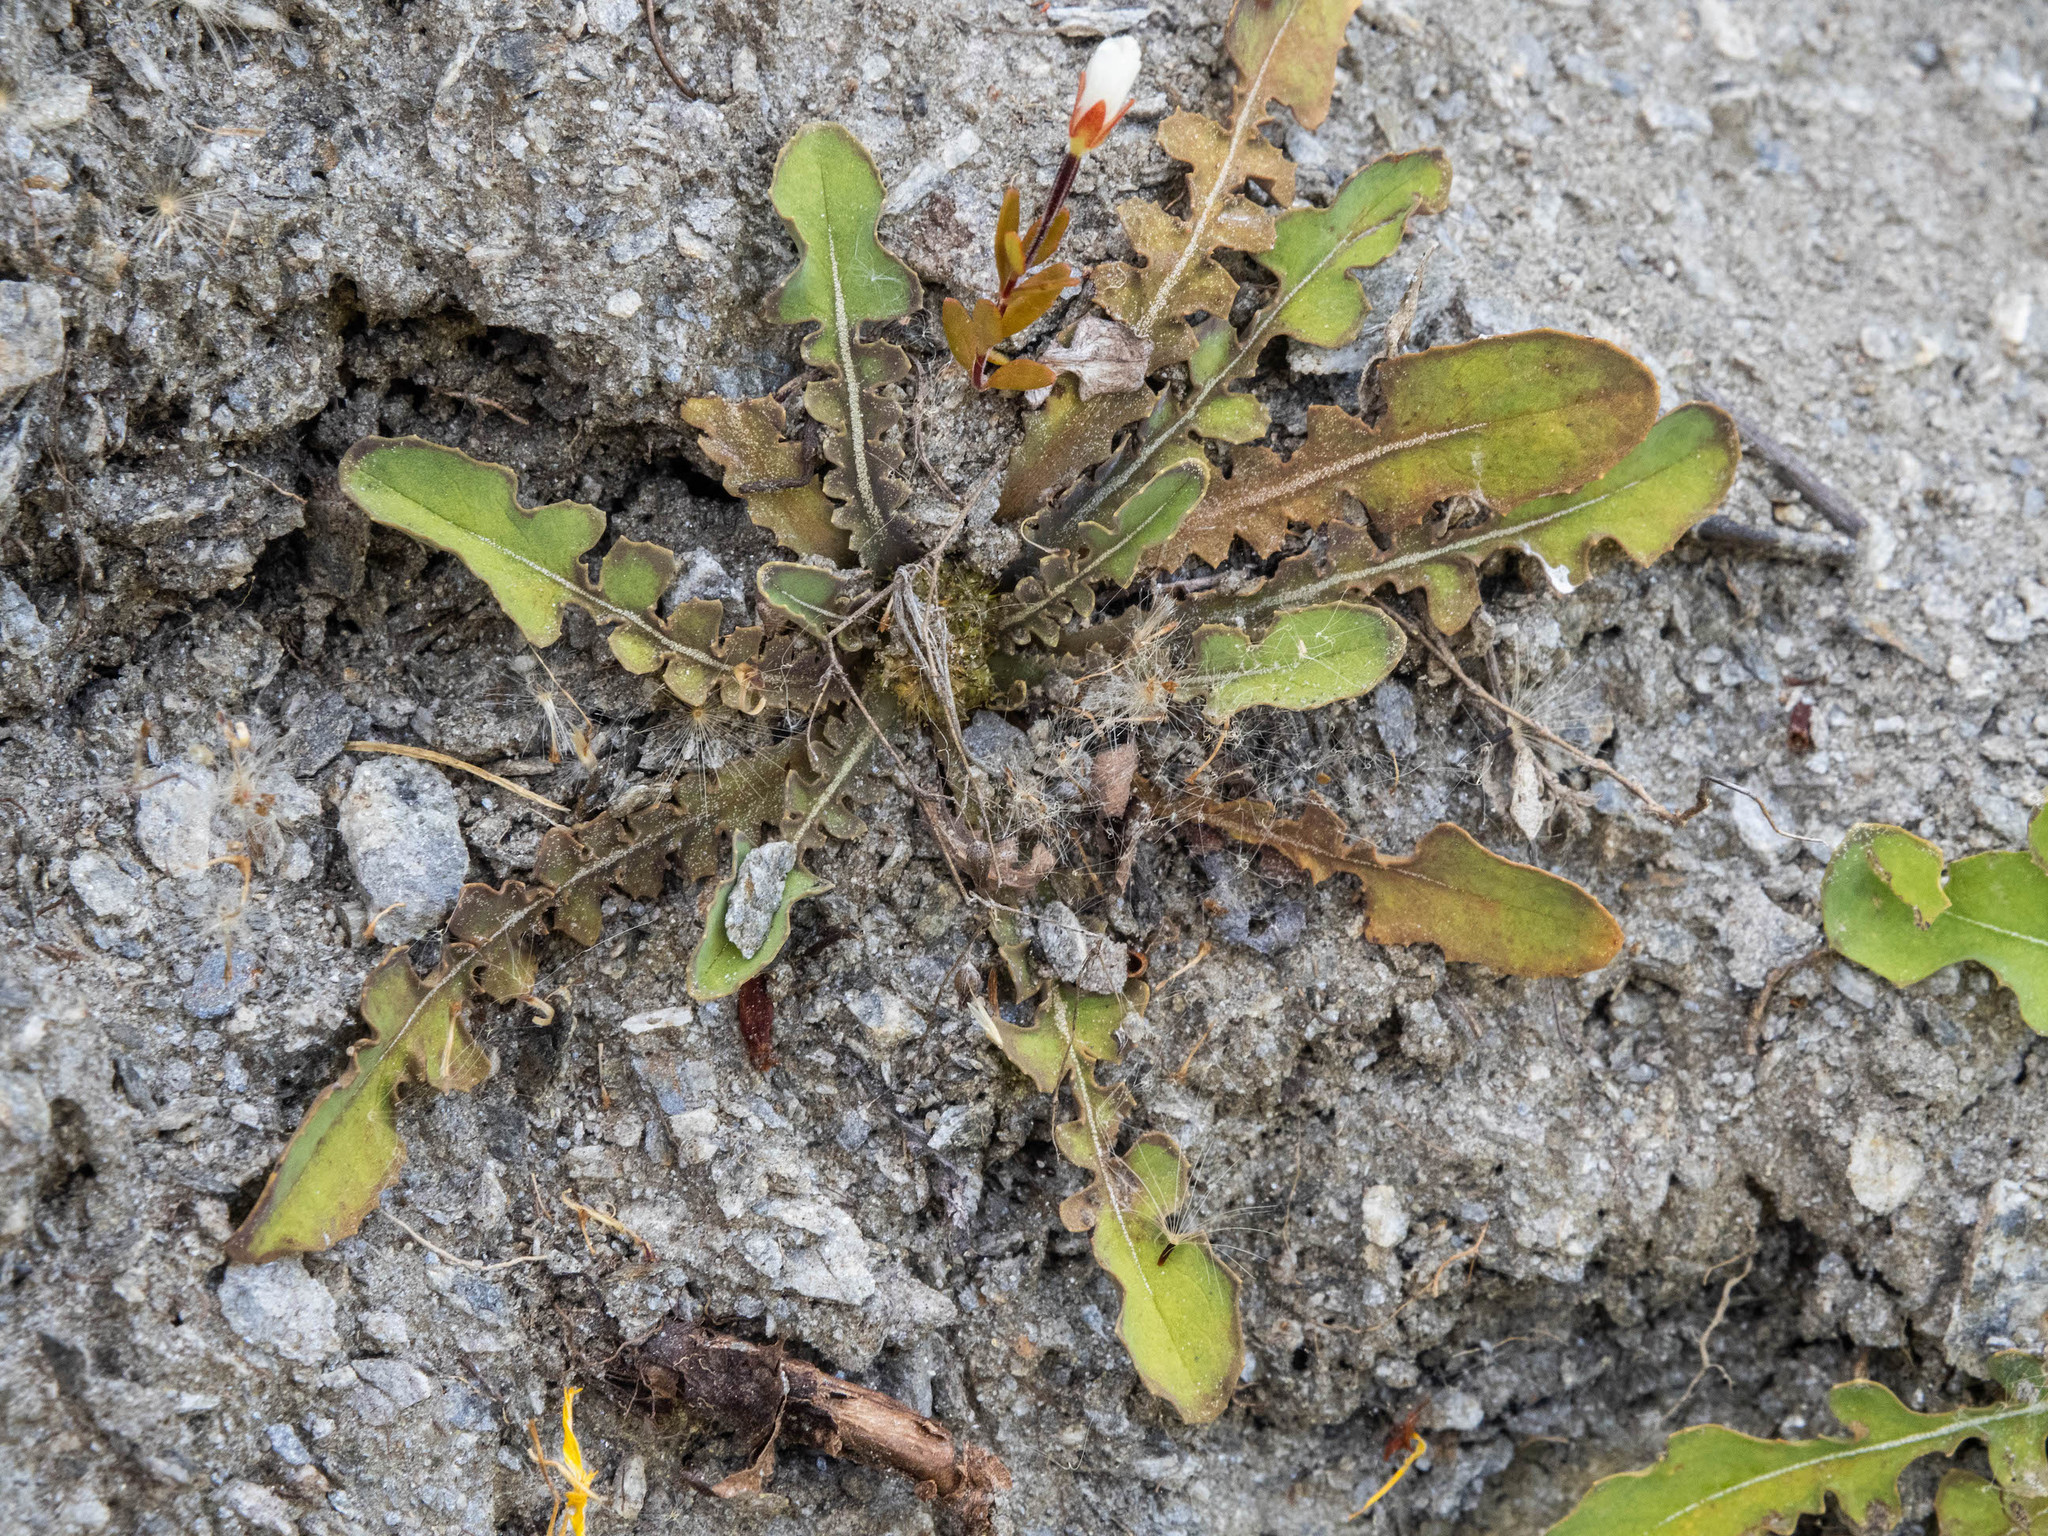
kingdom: Plantae
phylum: Tracheophyta
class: Magnoliopsida
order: Asterales
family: Asteraceae
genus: Sonchus
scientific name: Sonchus novae-zelandiae
